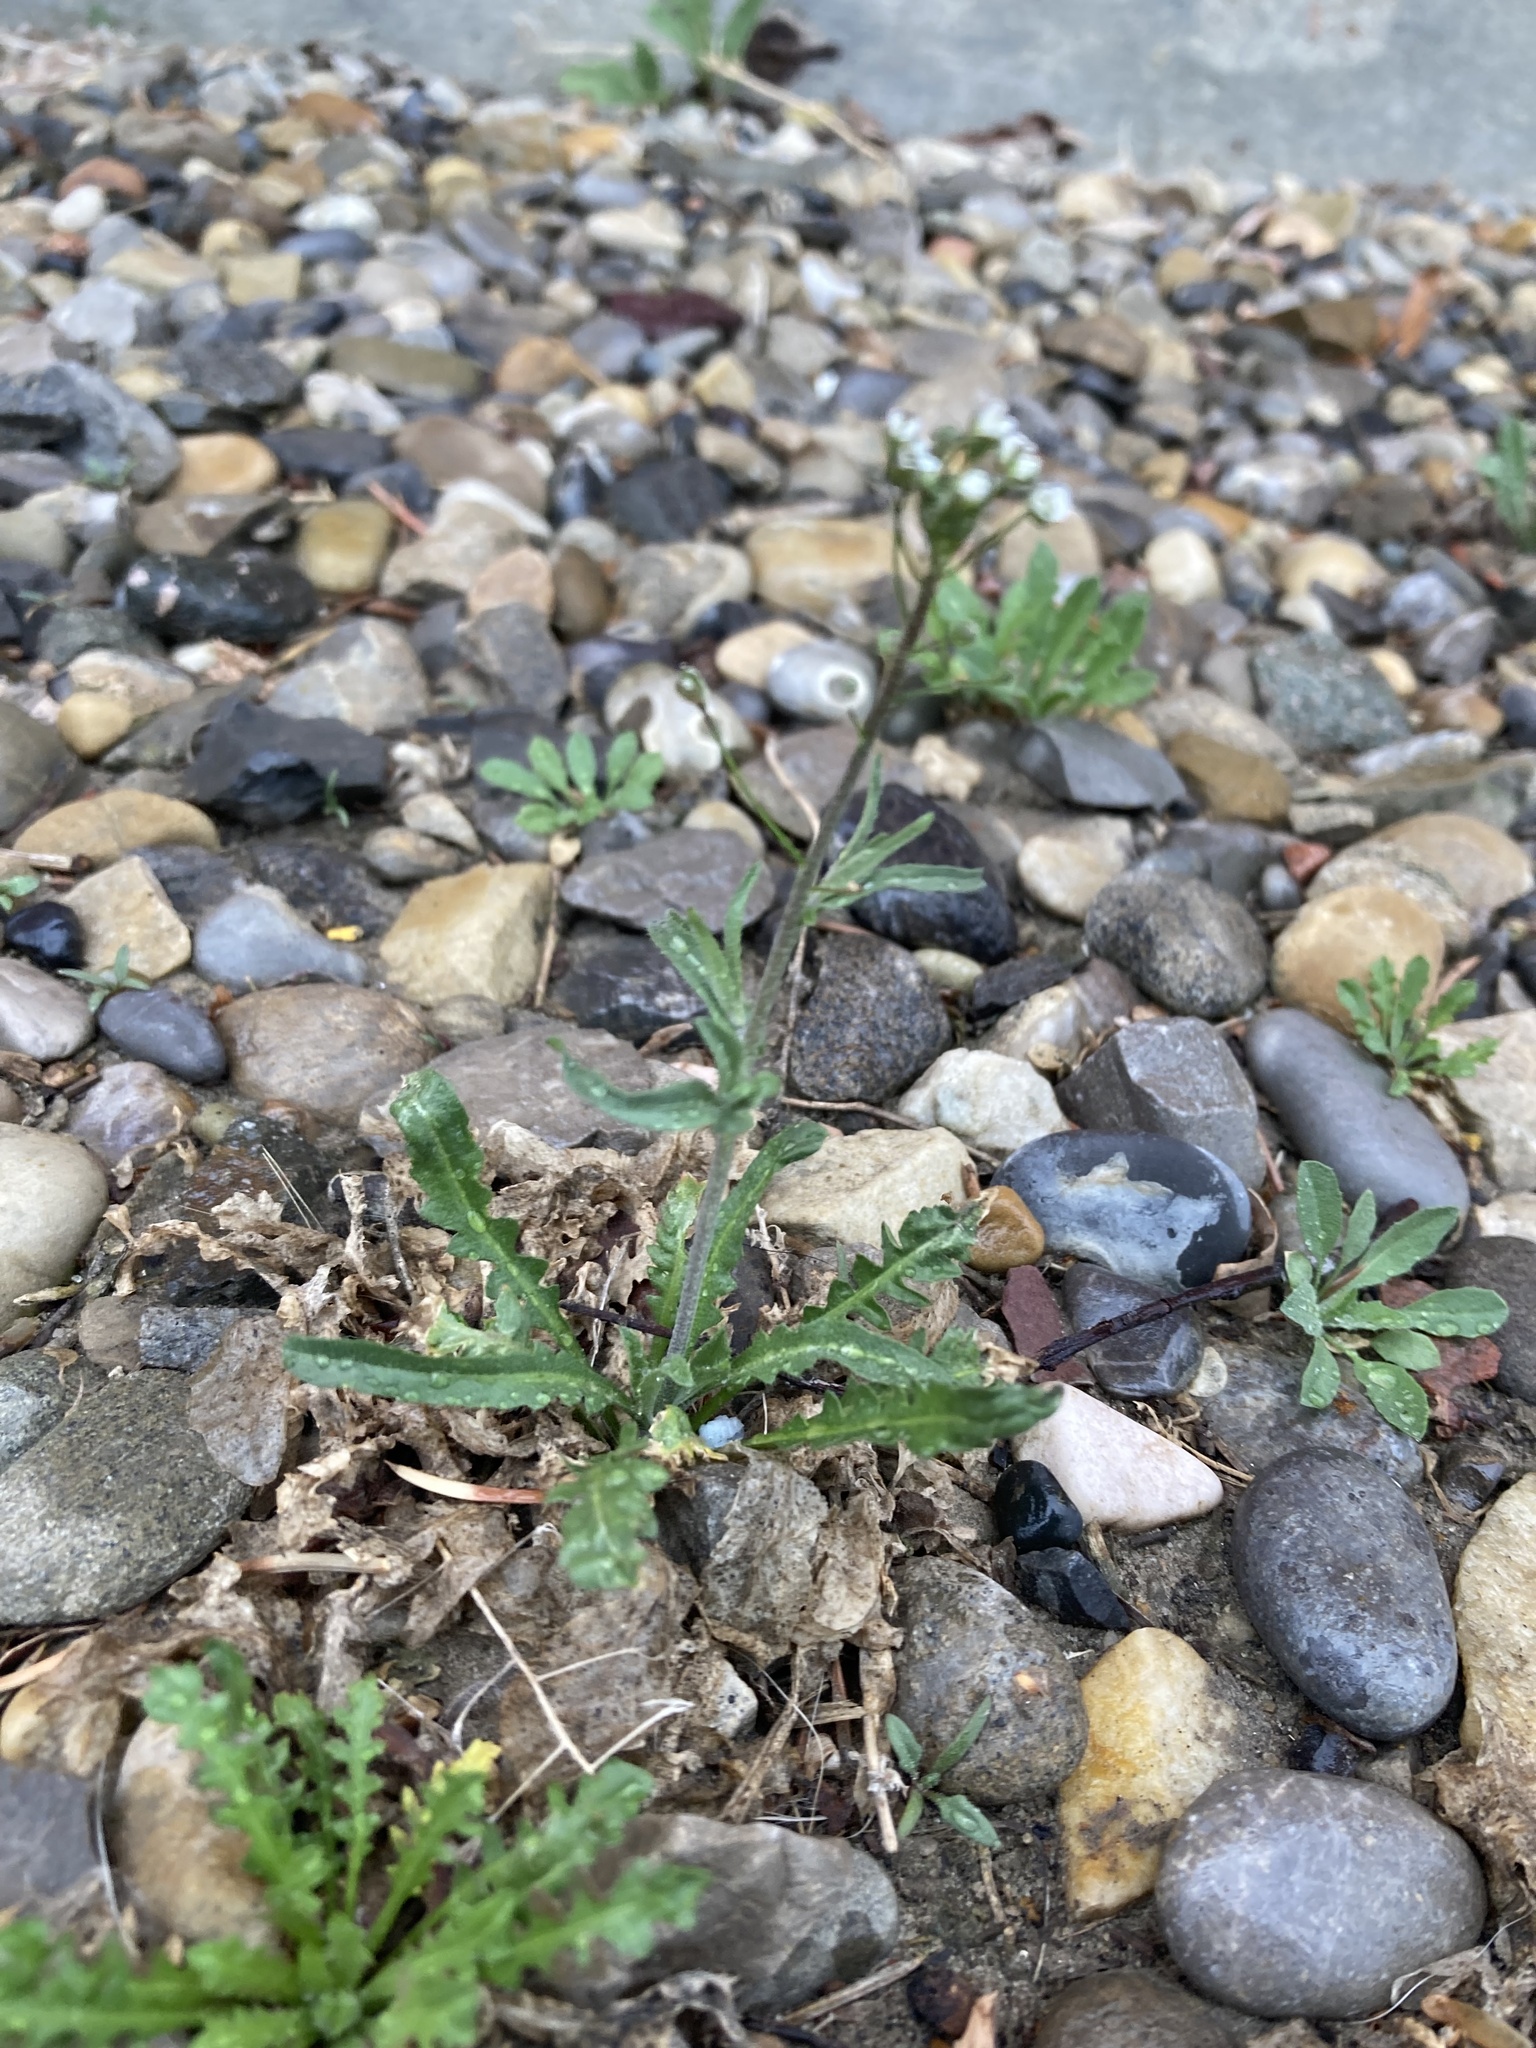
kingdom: Plantae
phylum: Tracheophyta
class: Magnoliopsida
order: Brassicales
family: Brassicaceae
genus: Capsella
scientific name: Capsella bursa-pastoris
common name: Shepherd's purse
